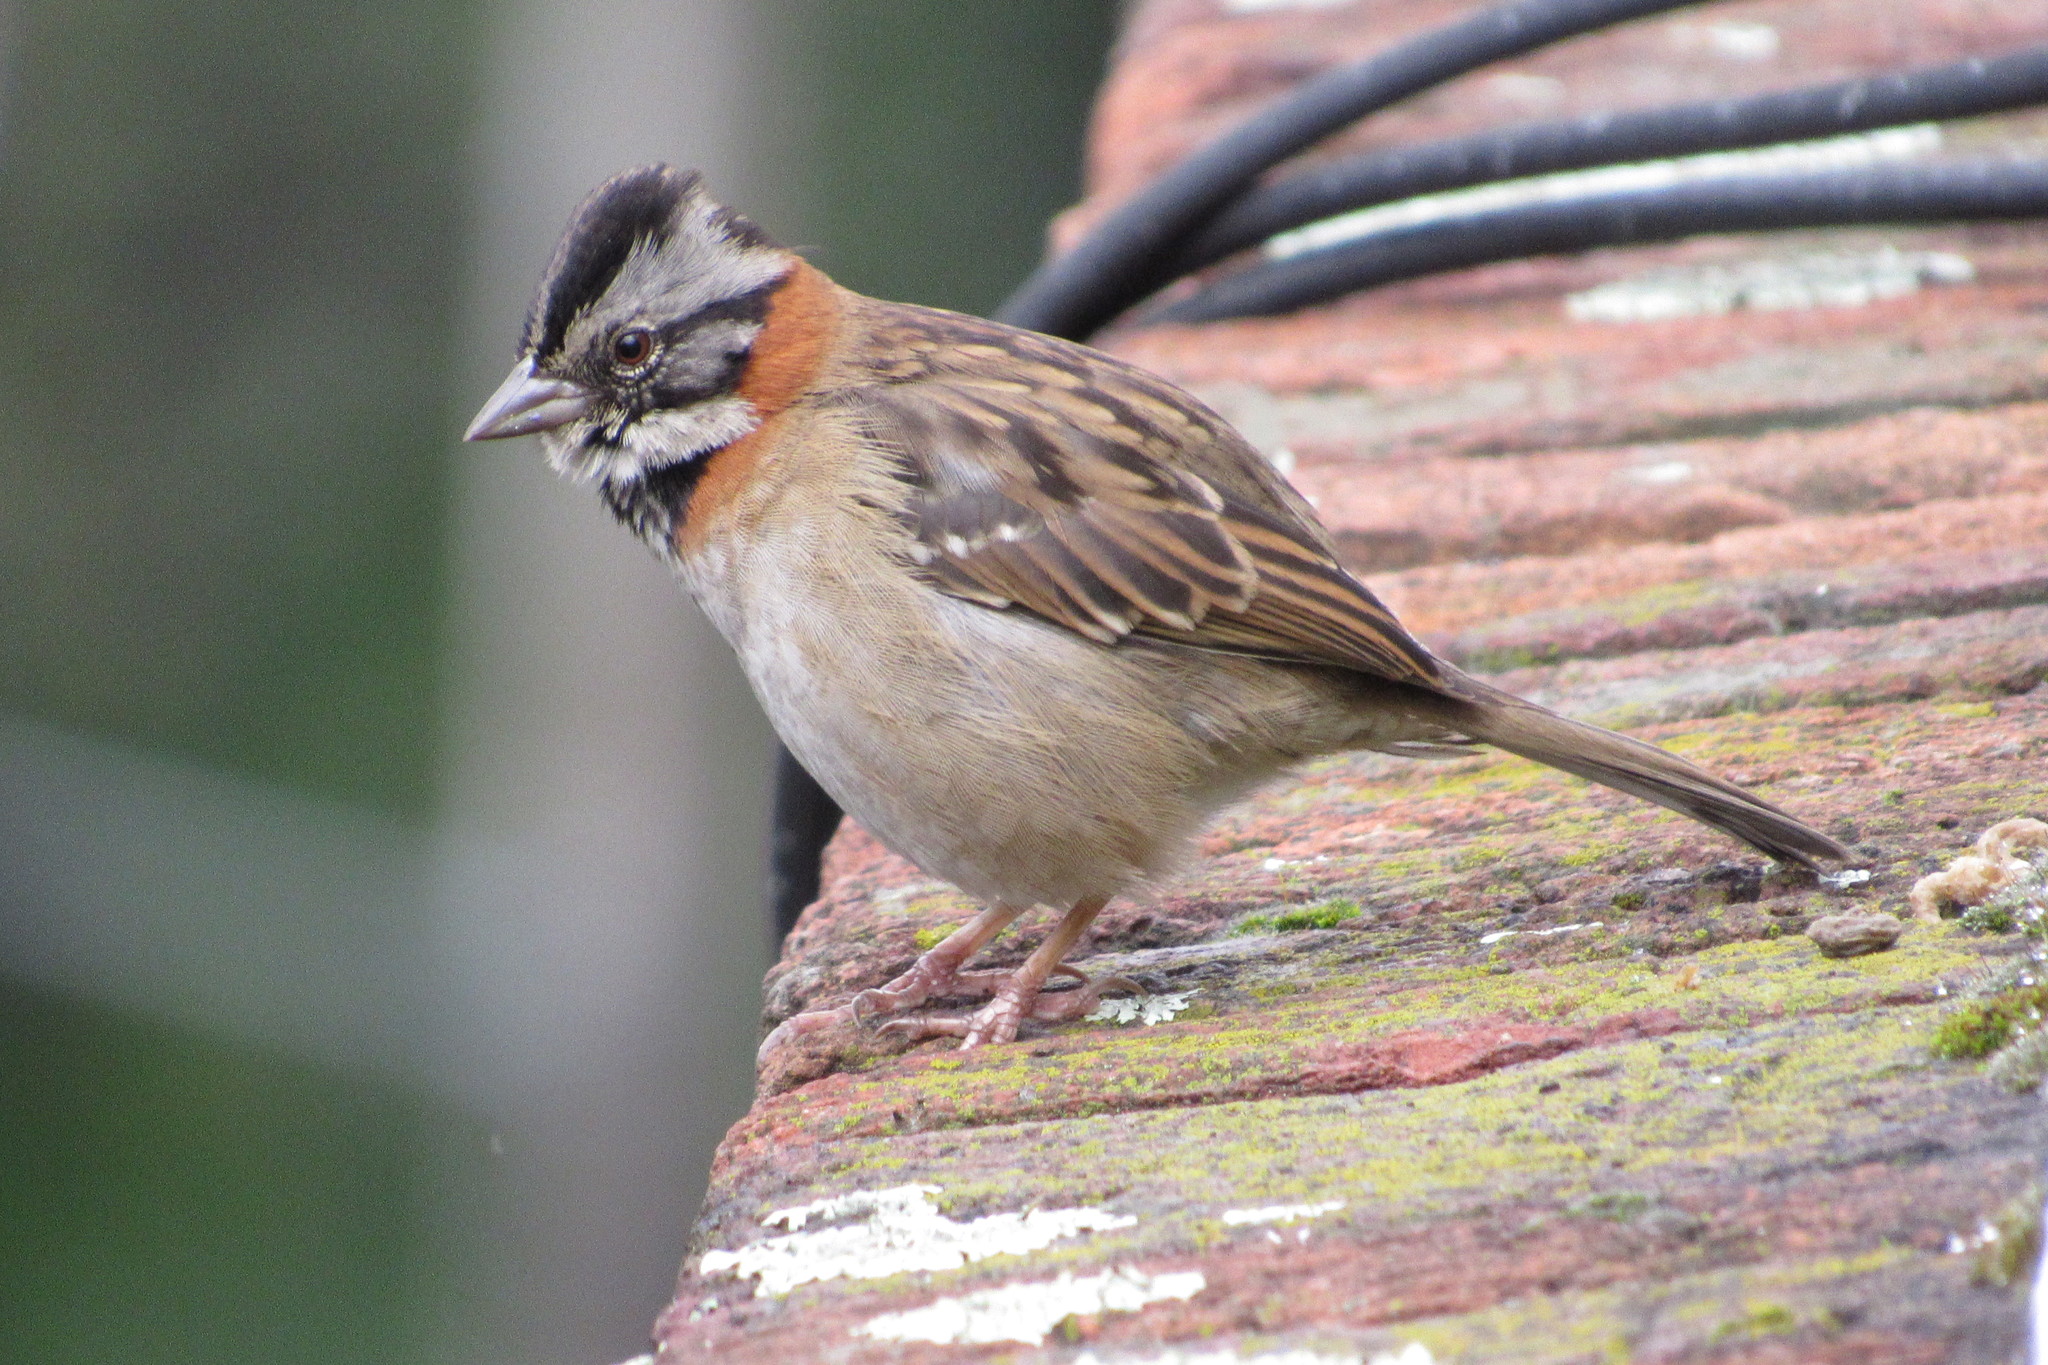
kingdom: Animalia
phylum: Chordata
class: Aves
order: Passeriformes
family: Passerellidae
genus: Zonotrichia
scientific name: Zonotrichia capensis
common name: Rufous-collared sparrow
